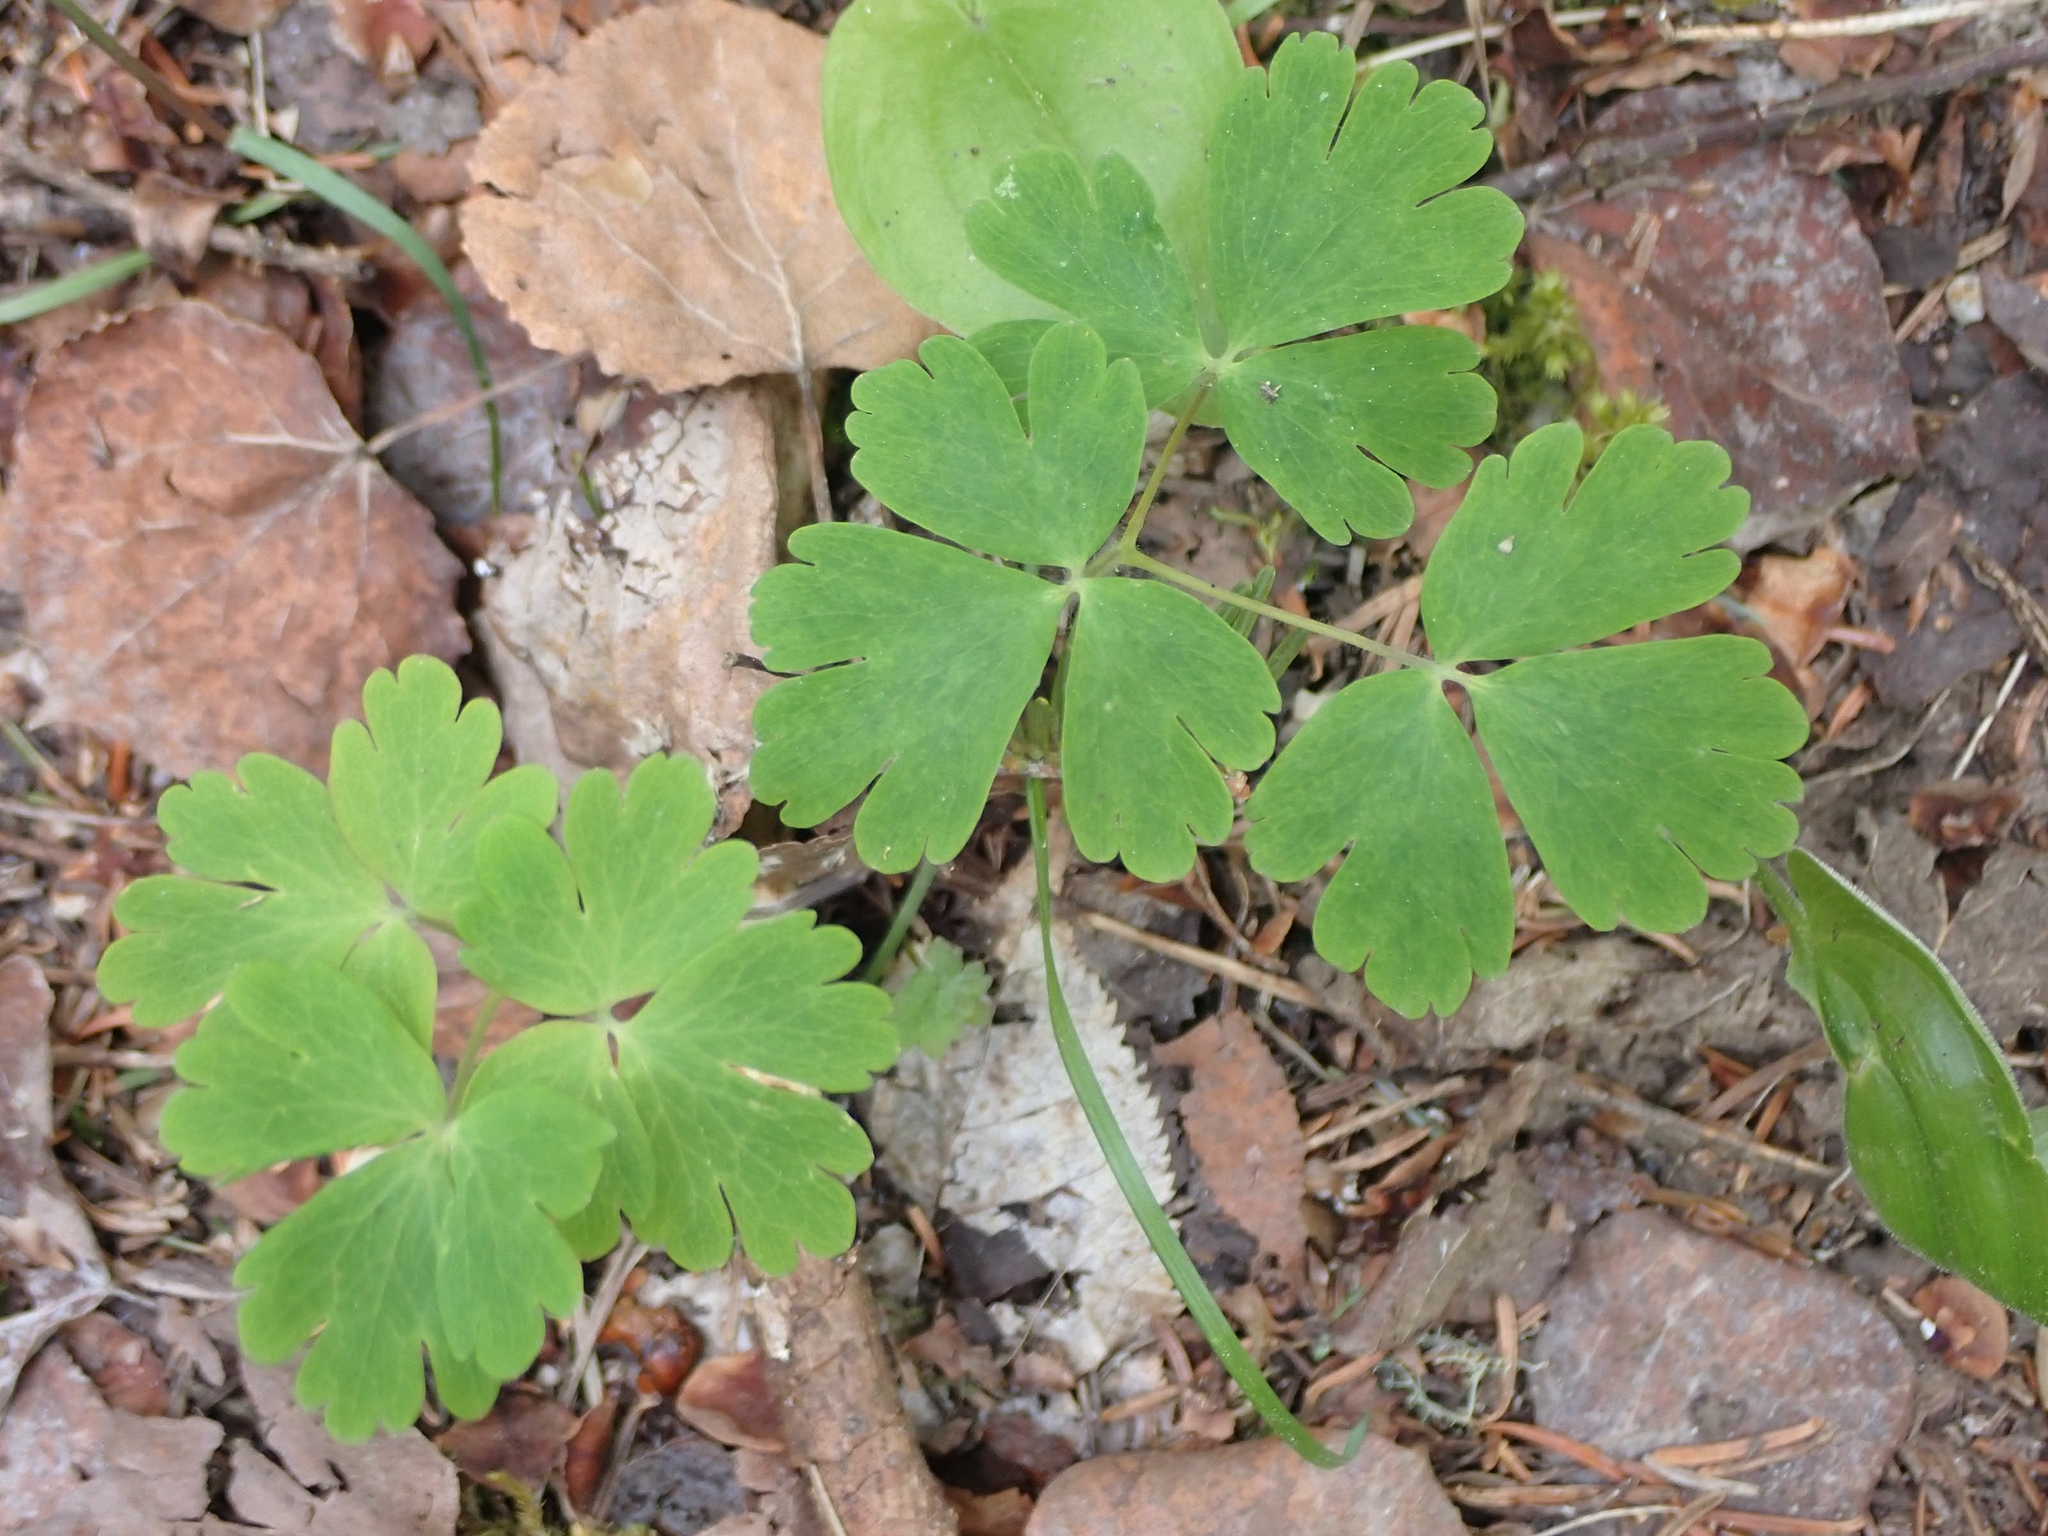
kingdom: Plantae
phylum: Tracheophyta
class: Magnoliopsida
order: Ranunculales
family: Ranunculaceae
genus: Aquilegia
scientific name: Aquilegia canadensis
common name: American columbine
